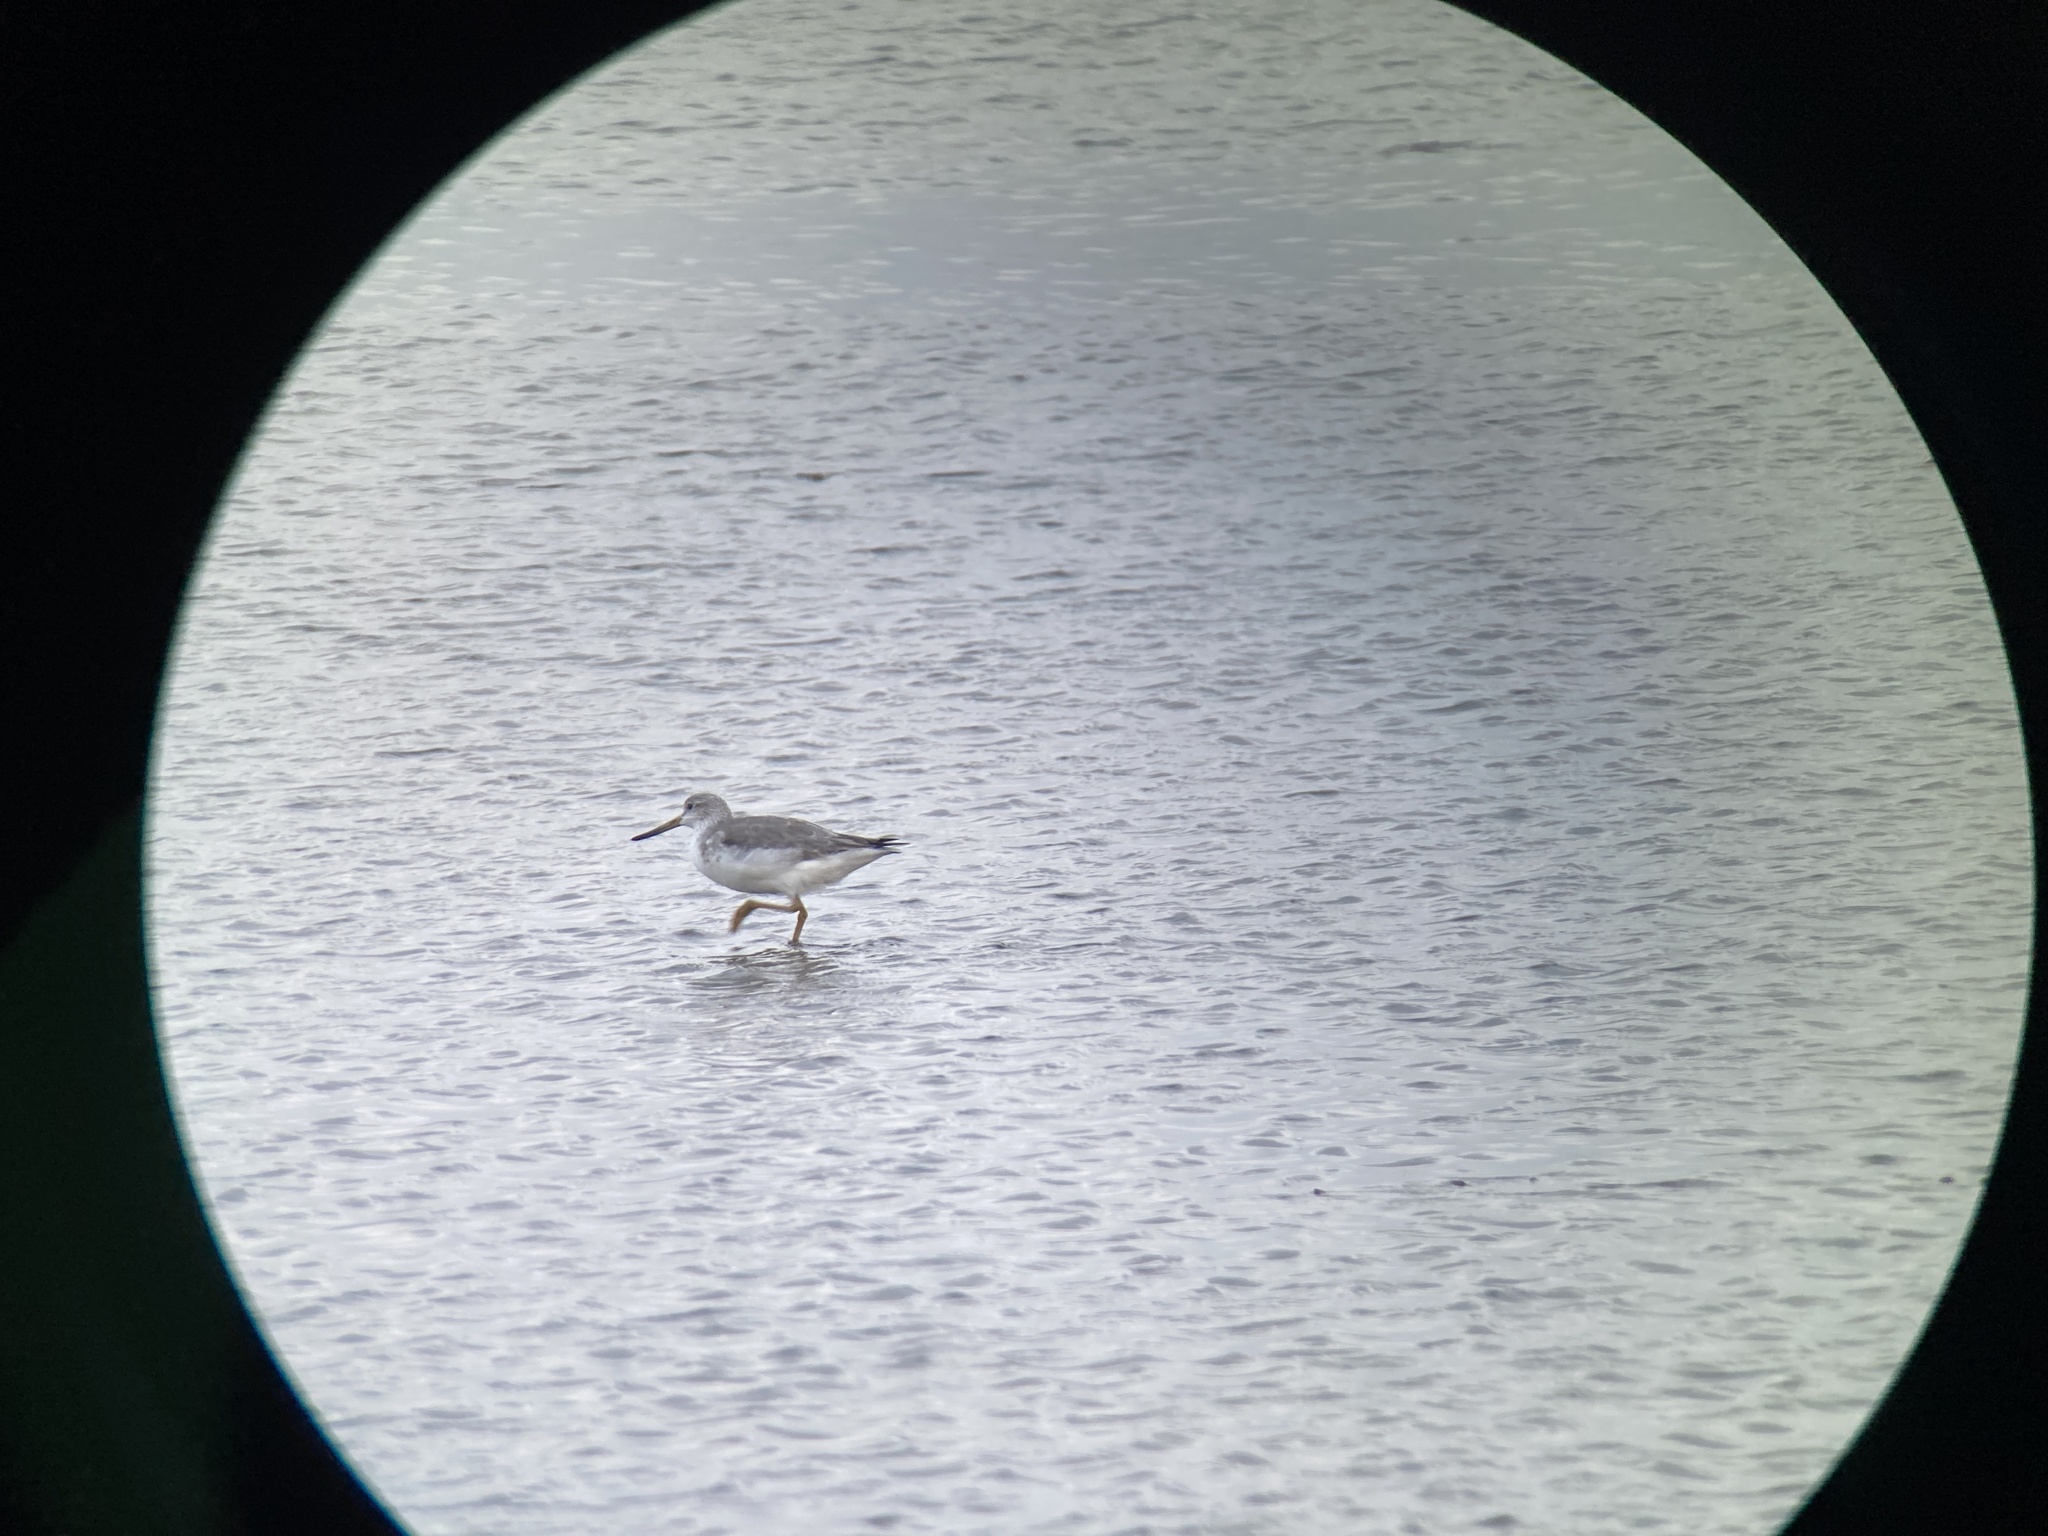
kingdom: Animalia
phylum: Chordata
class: Aves
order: Charadriiformes
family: Scolopacidae
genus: Tringa
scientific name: Tringa guttifer
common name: Nordmann's greenshank
